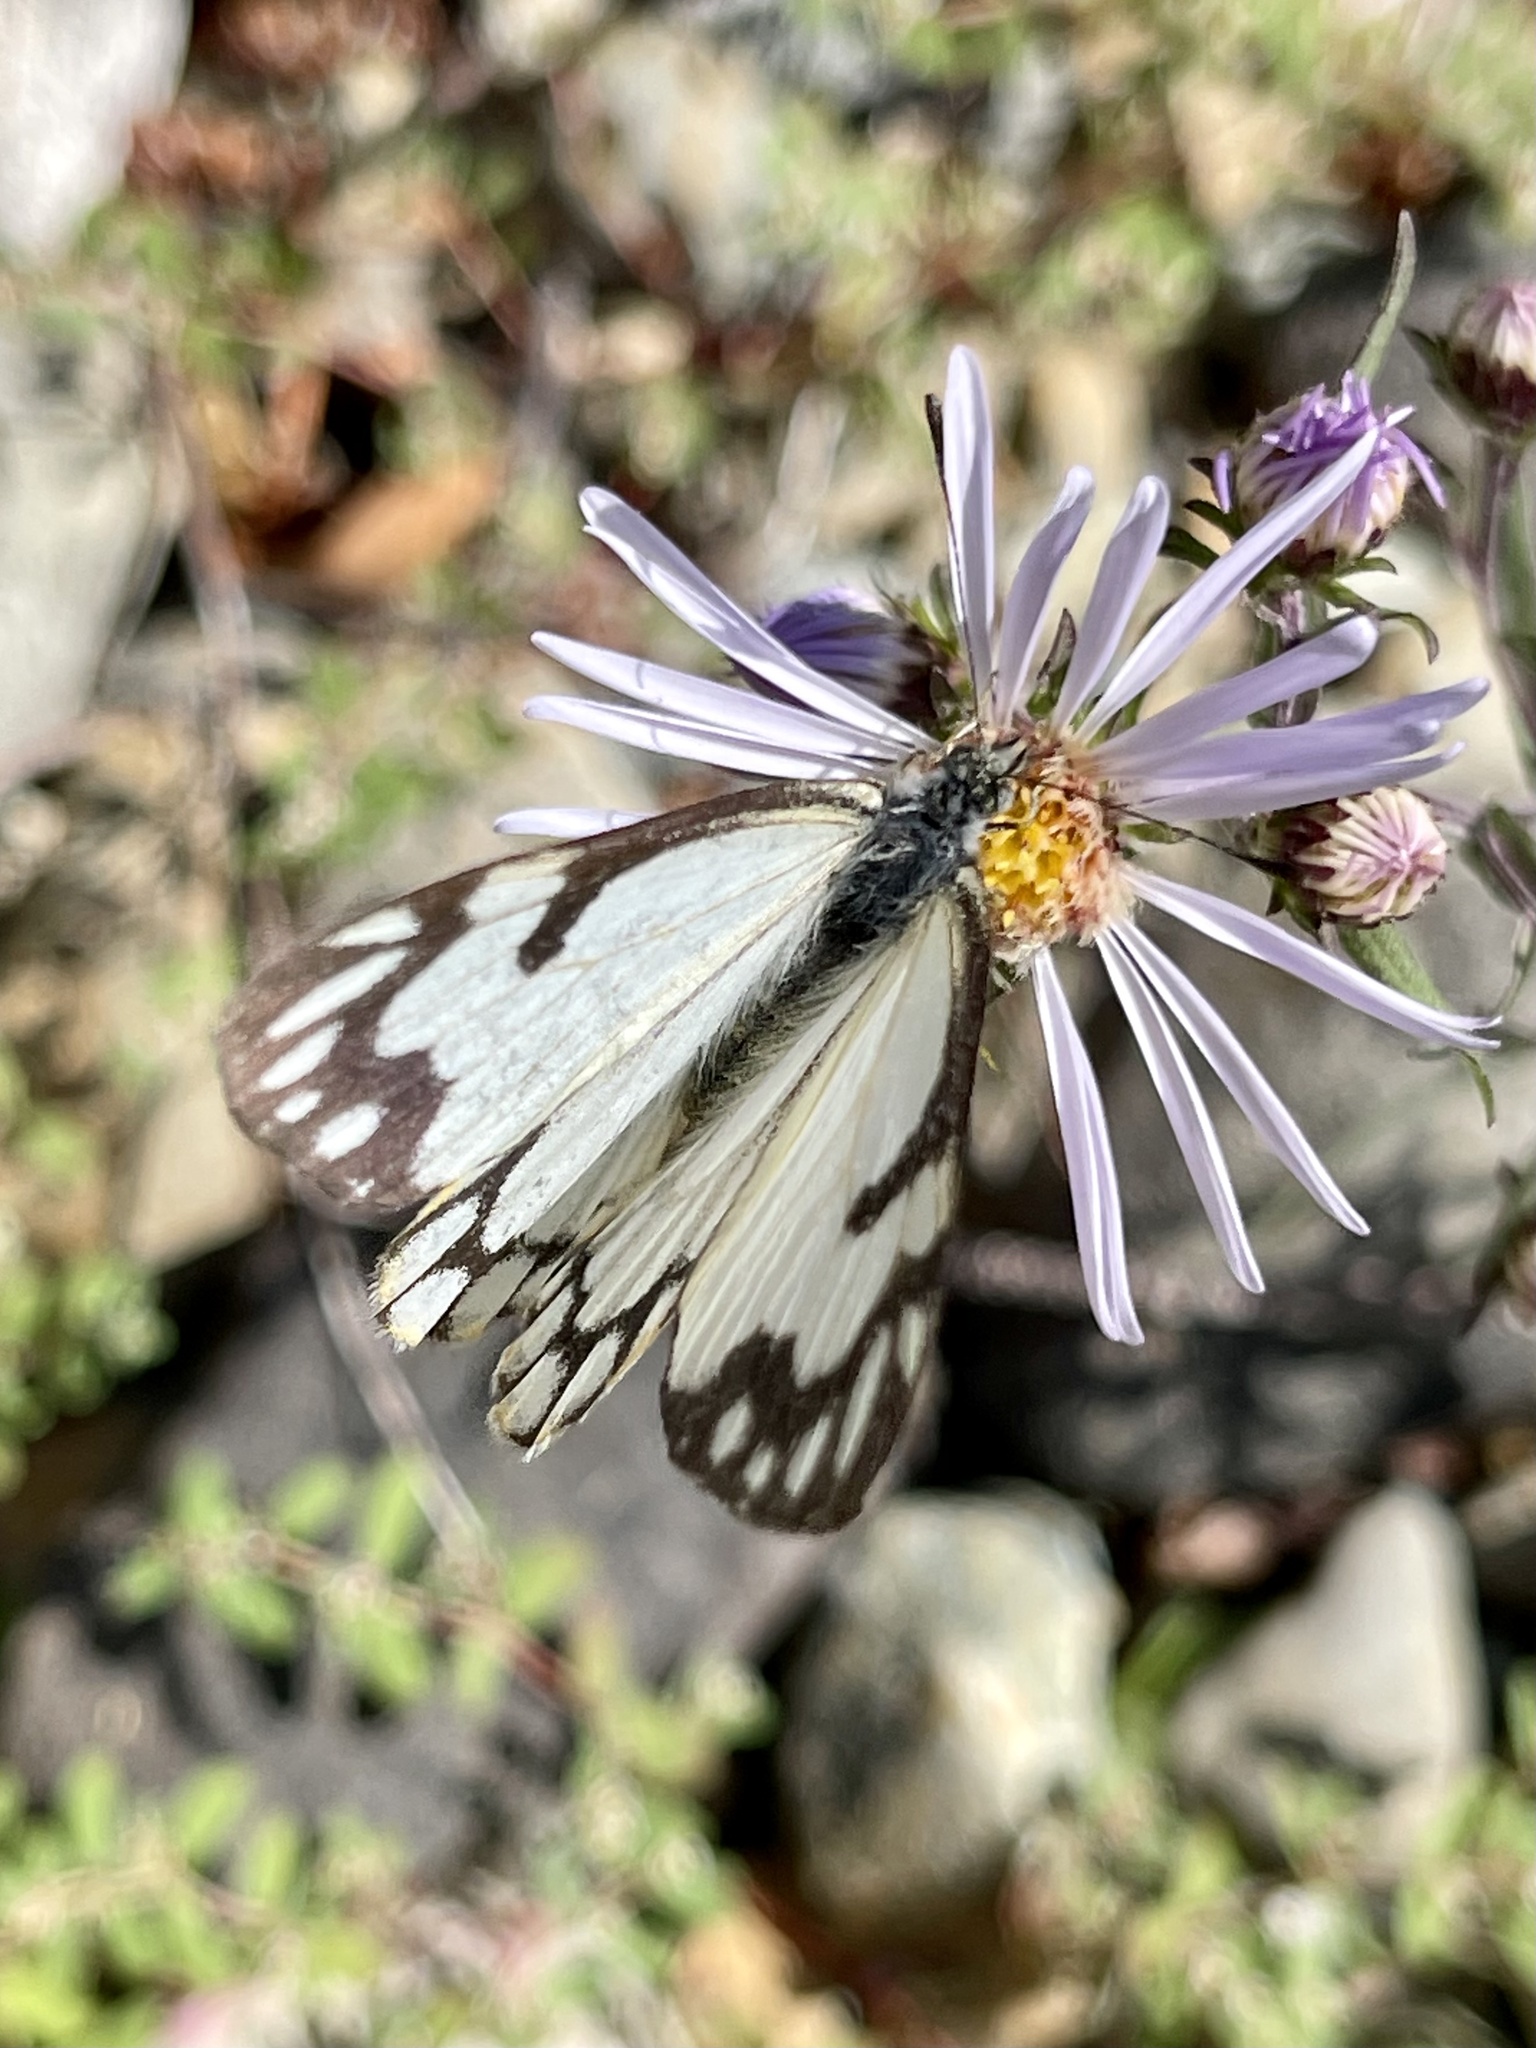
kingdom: Animalia
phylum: Arthropoda
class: Insecta
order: Lepidoptera
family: Pieridae
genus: Neophasia
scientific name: Neophasia menapia
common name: Pine white
